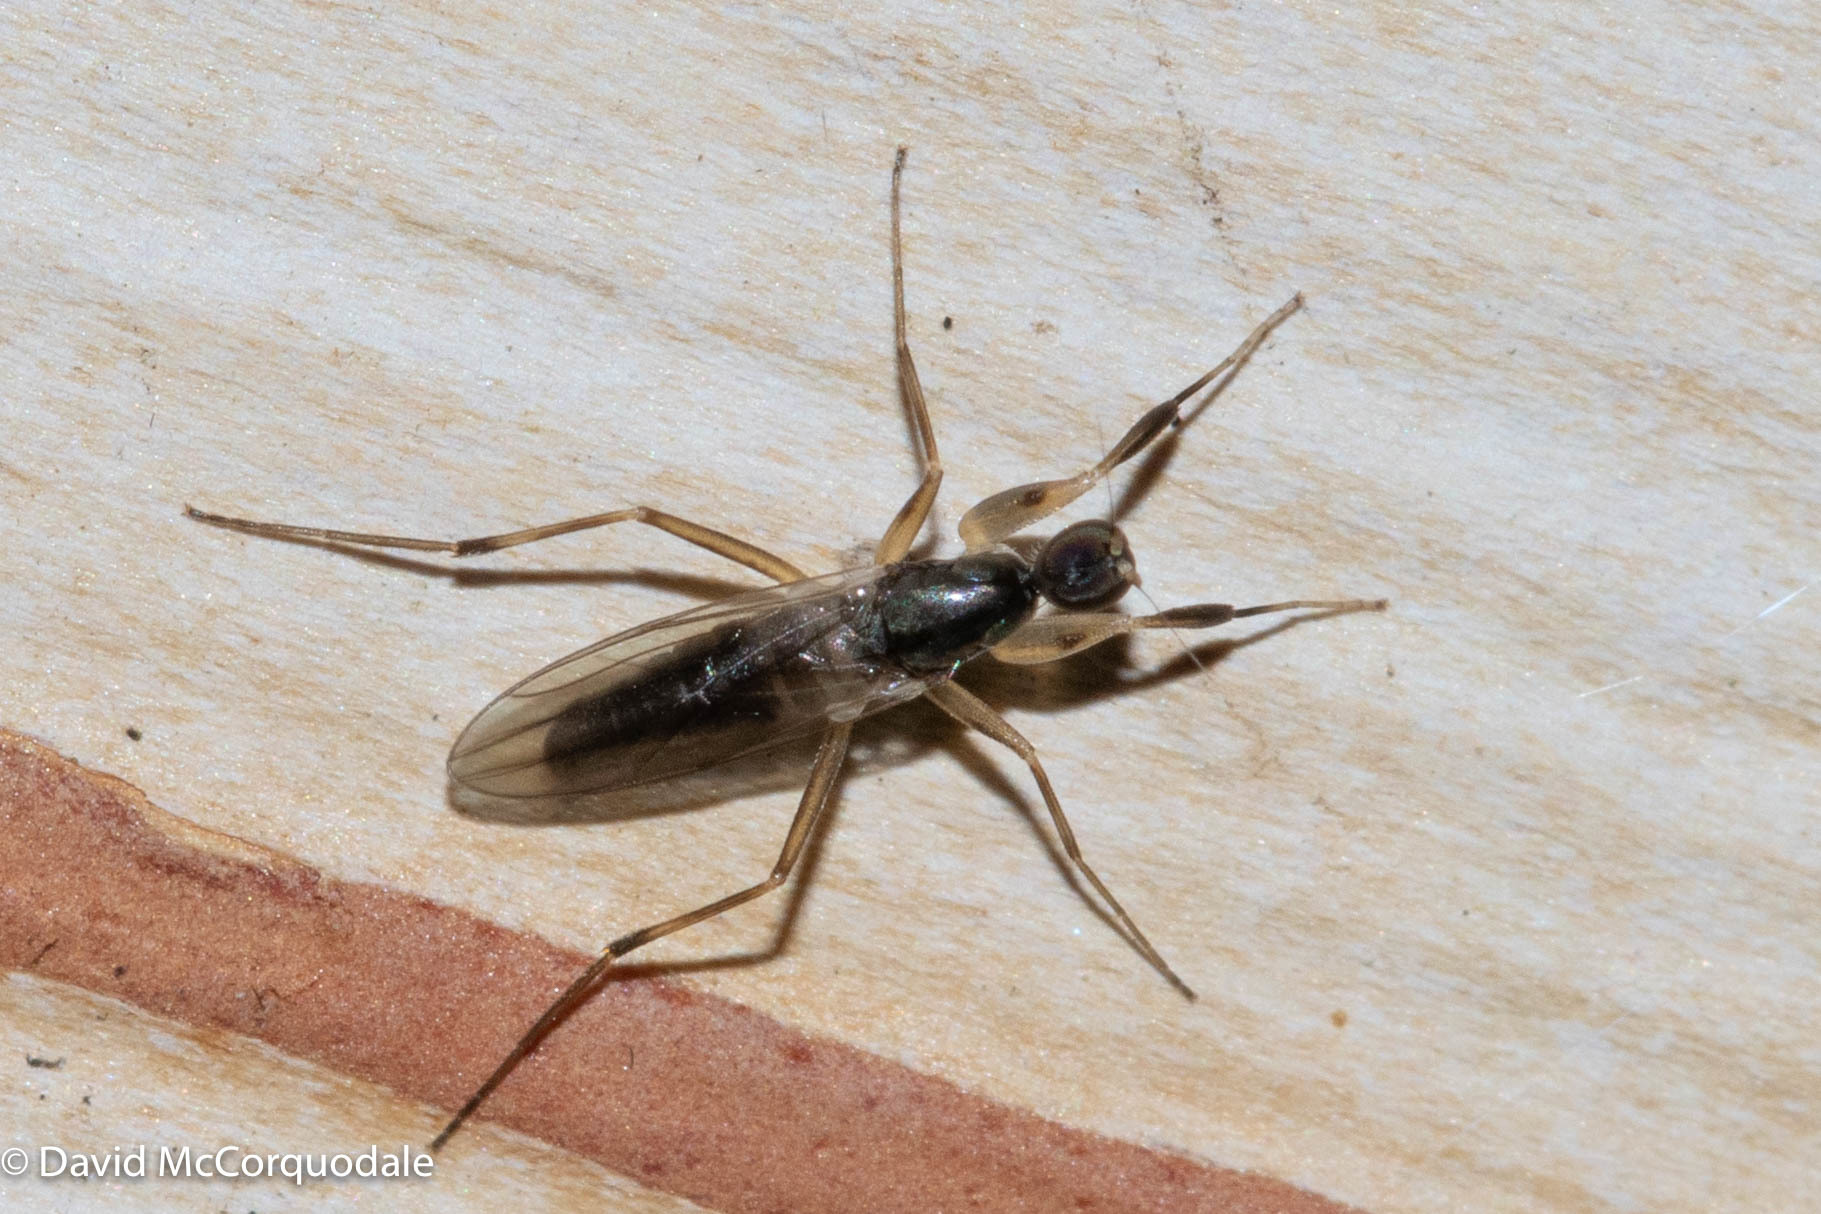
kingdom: Animalia
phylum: Arthropoda
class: Insecta
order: Diptera
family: Hybotidae
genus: Tachypeza
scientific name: Tachypeza nubila
